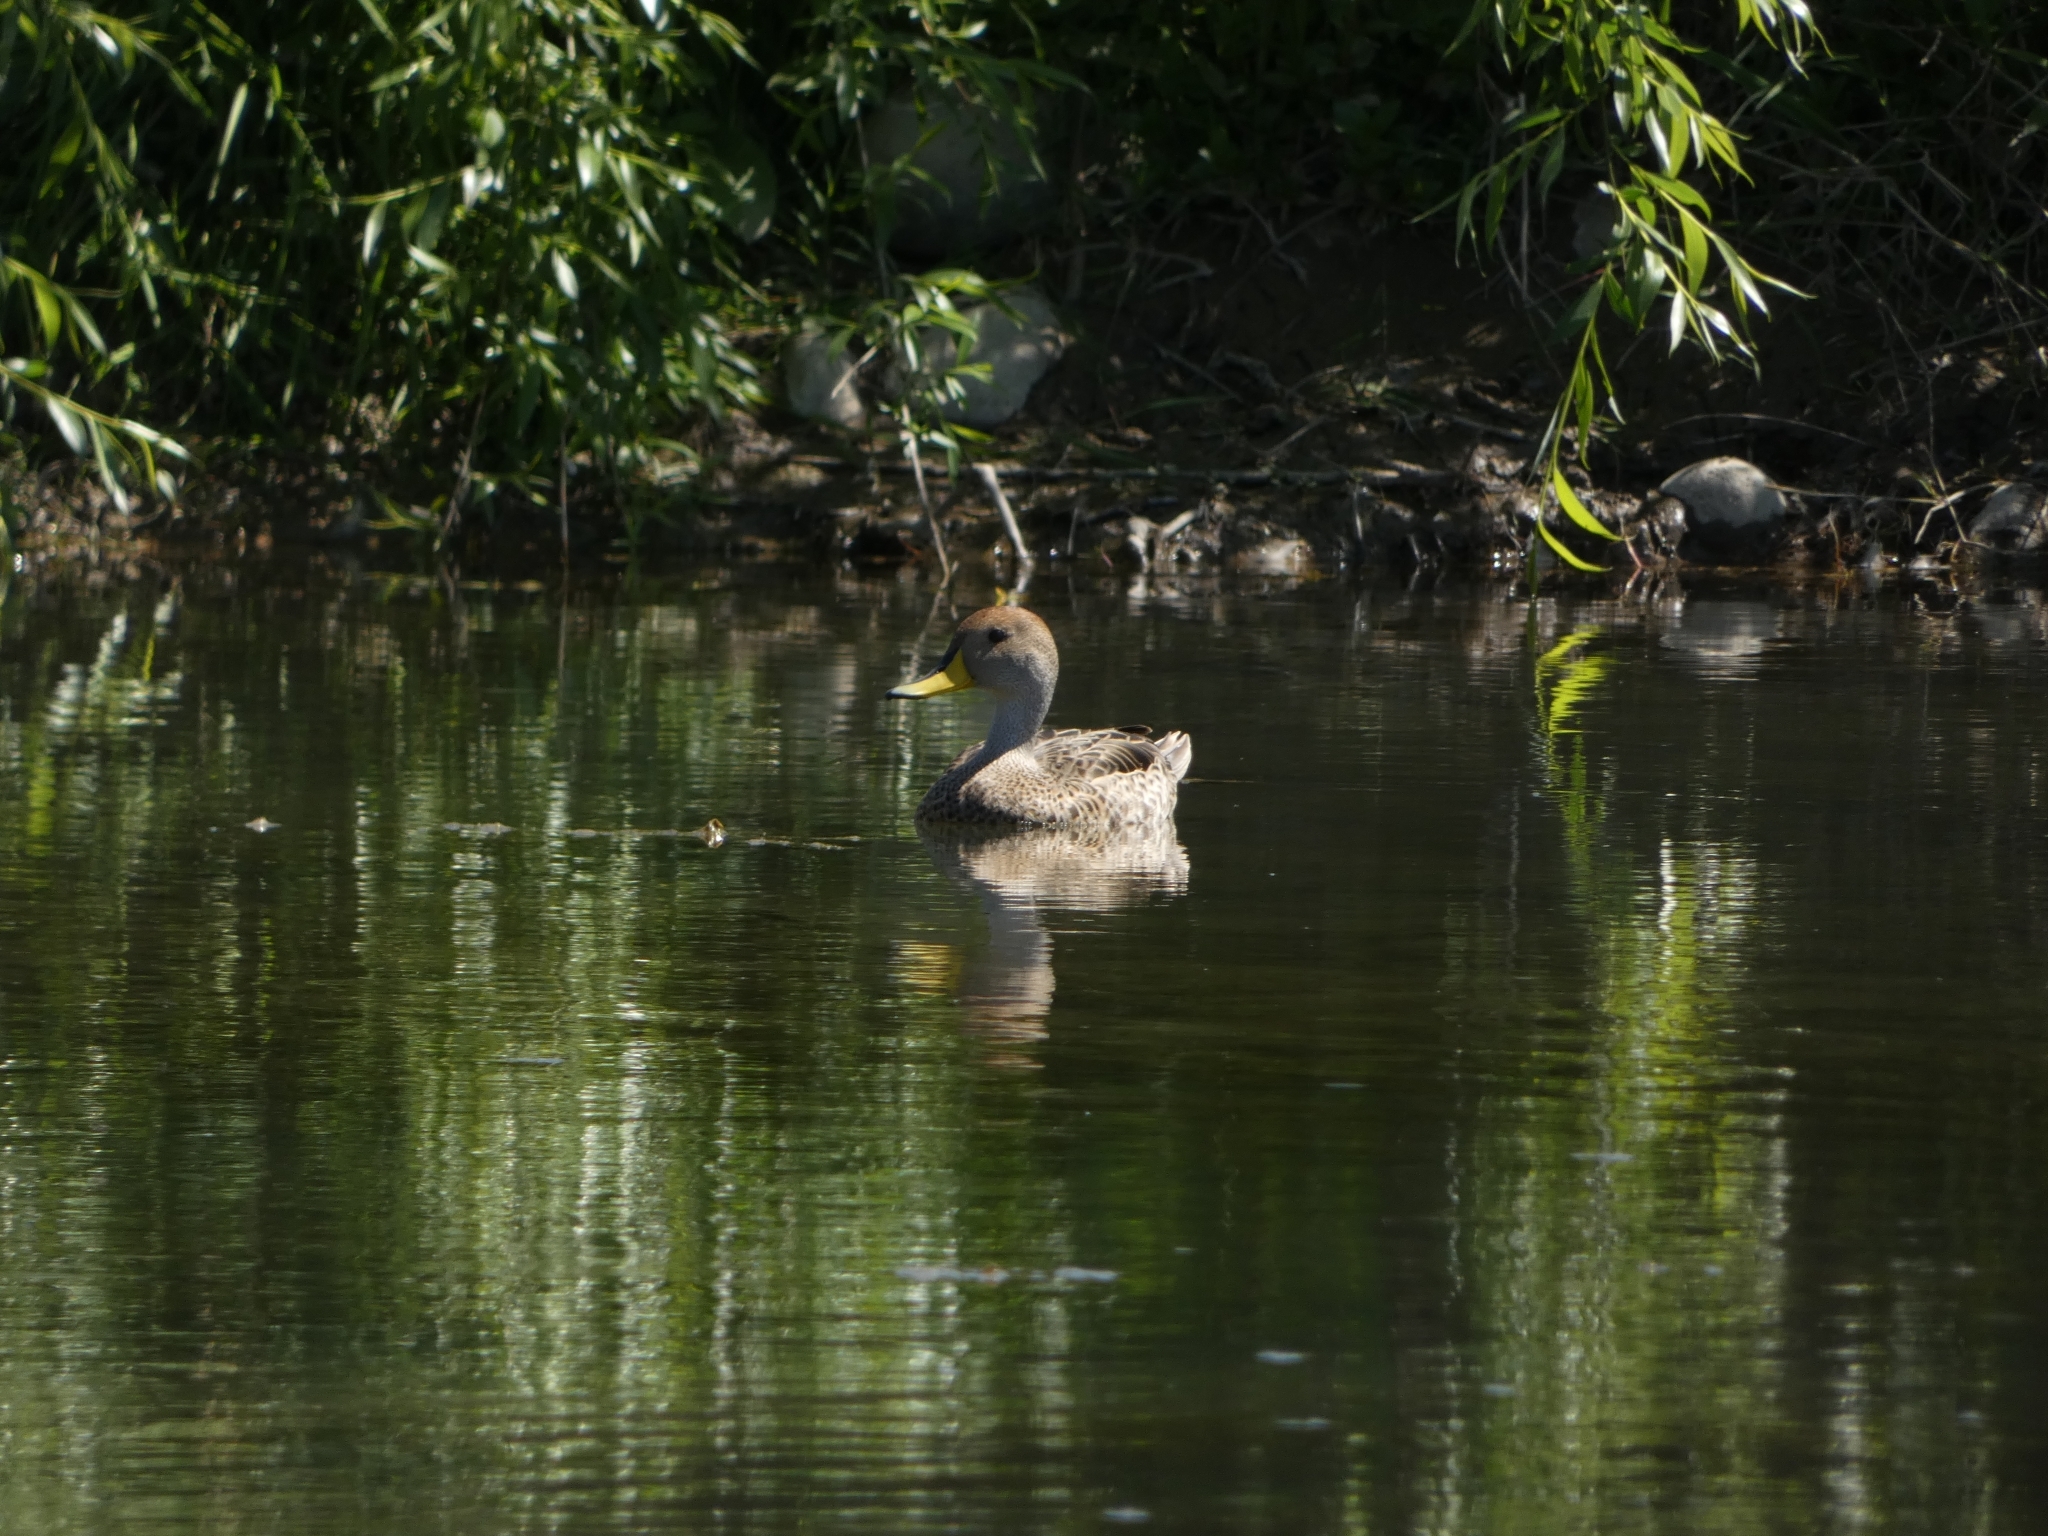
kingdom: Animalia
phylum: Chordata
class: Aves
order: Anseriformes
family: Anatidae
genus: Anas
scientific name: Anas georgica
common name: Yellow-billed pintail
